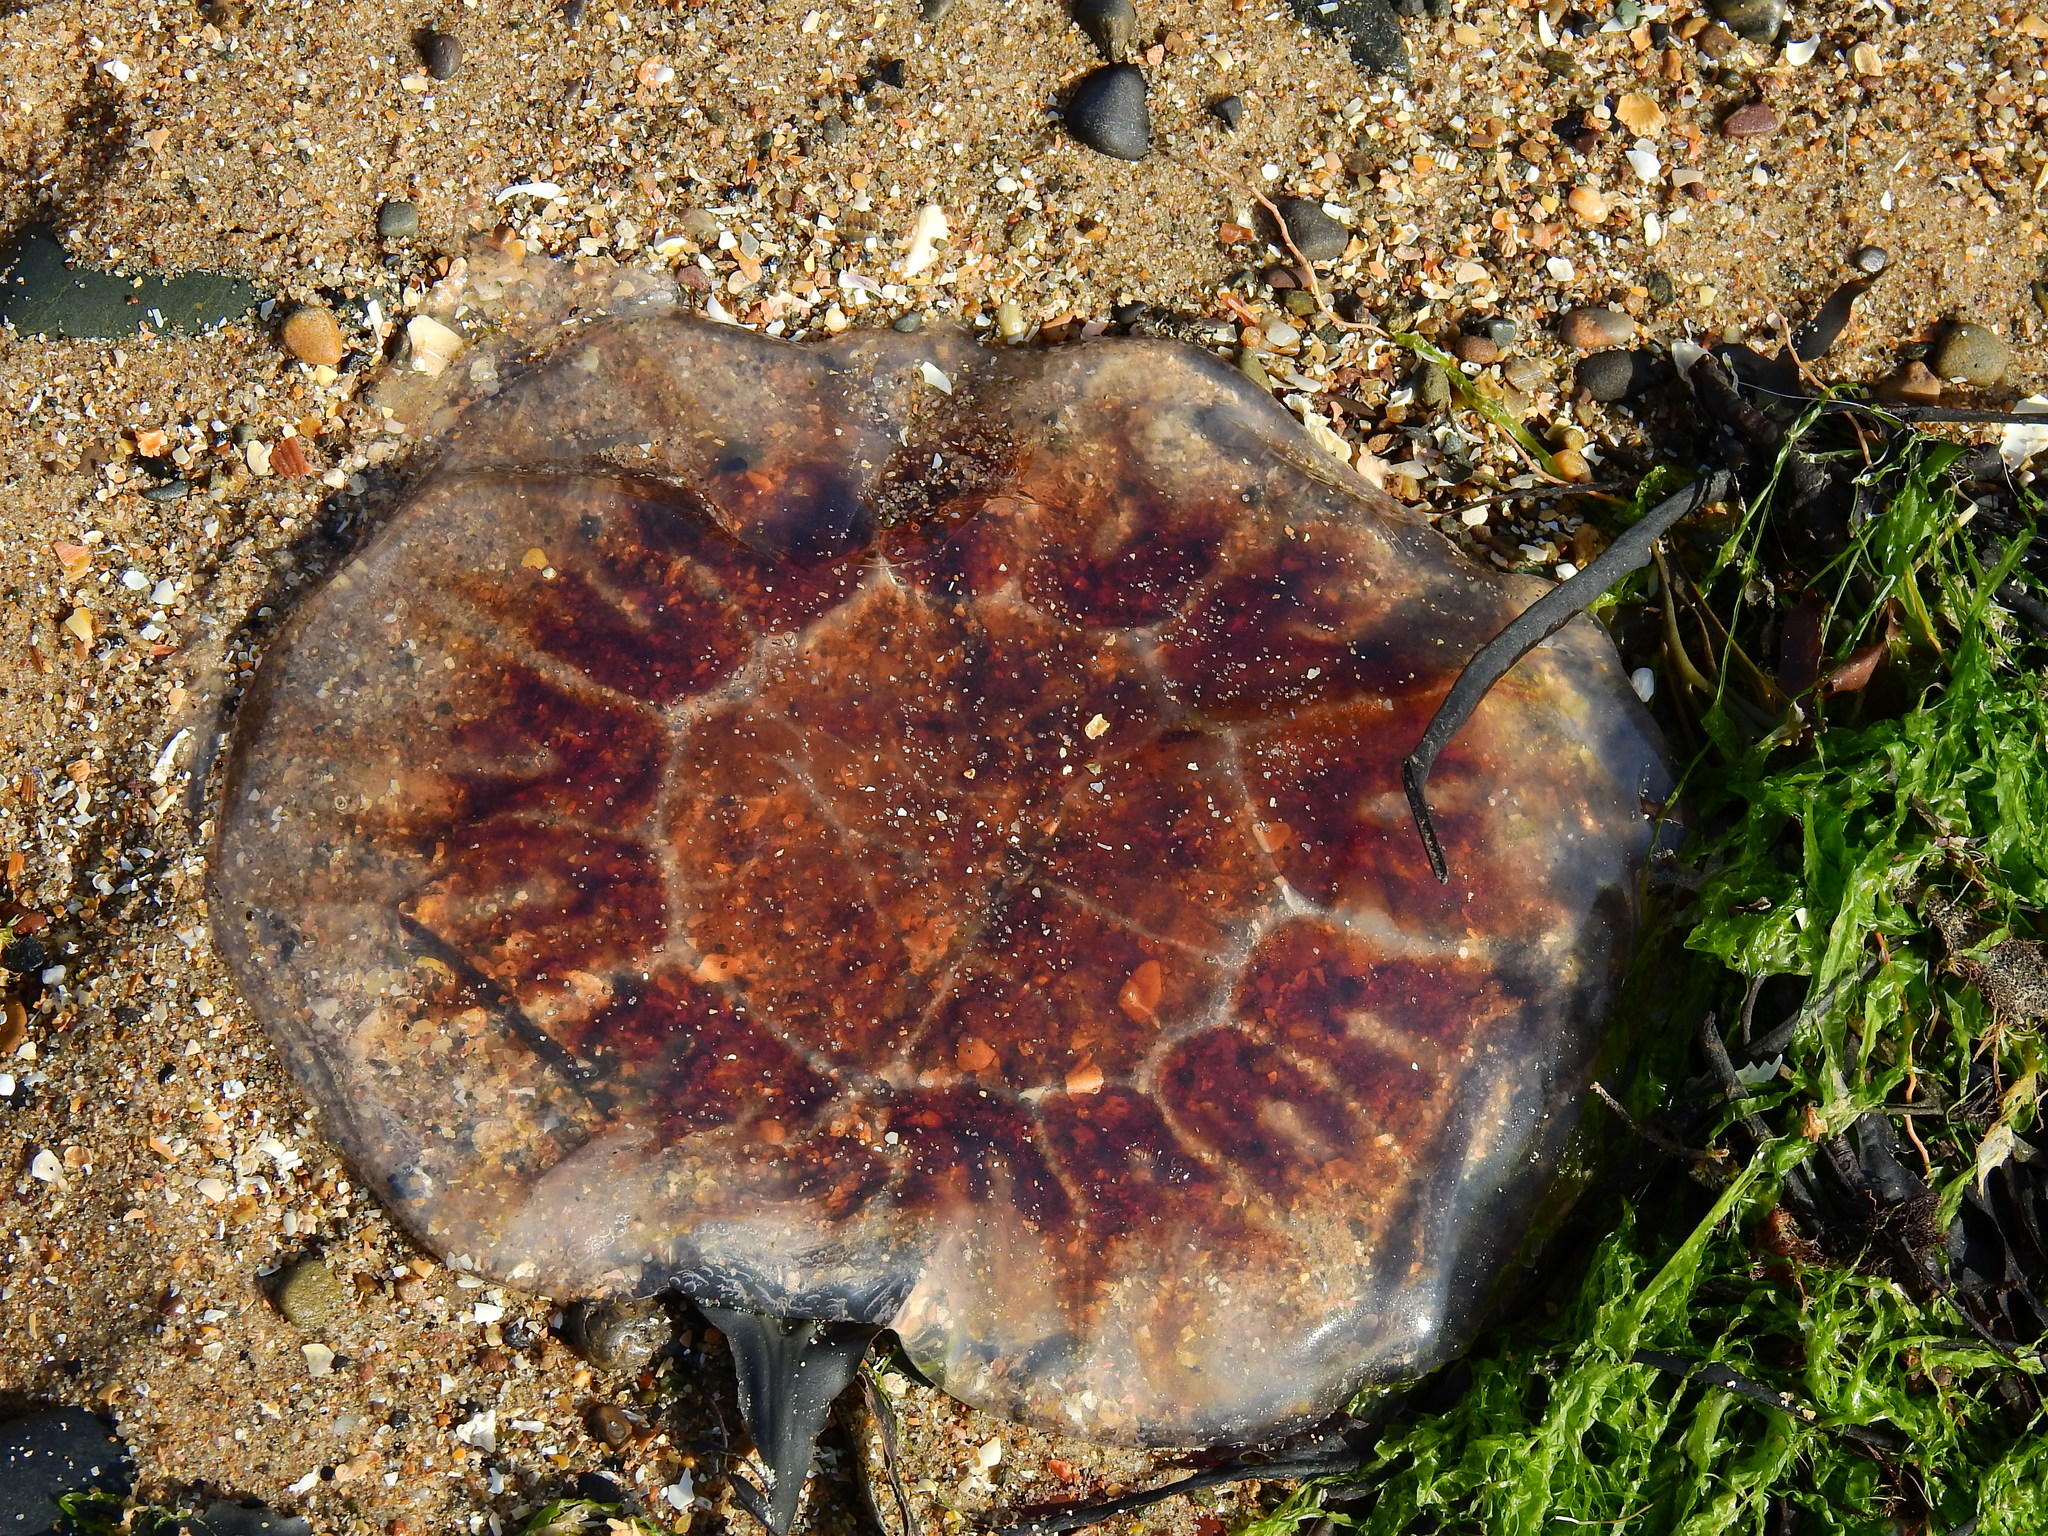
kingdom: Animalia
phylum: Cnidaria
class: Scyphozoa
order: Semaeostomeae
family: Cyaneidae
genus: Cyanea
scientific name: Cyanea capillata
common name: Lion's mane jellyfish
